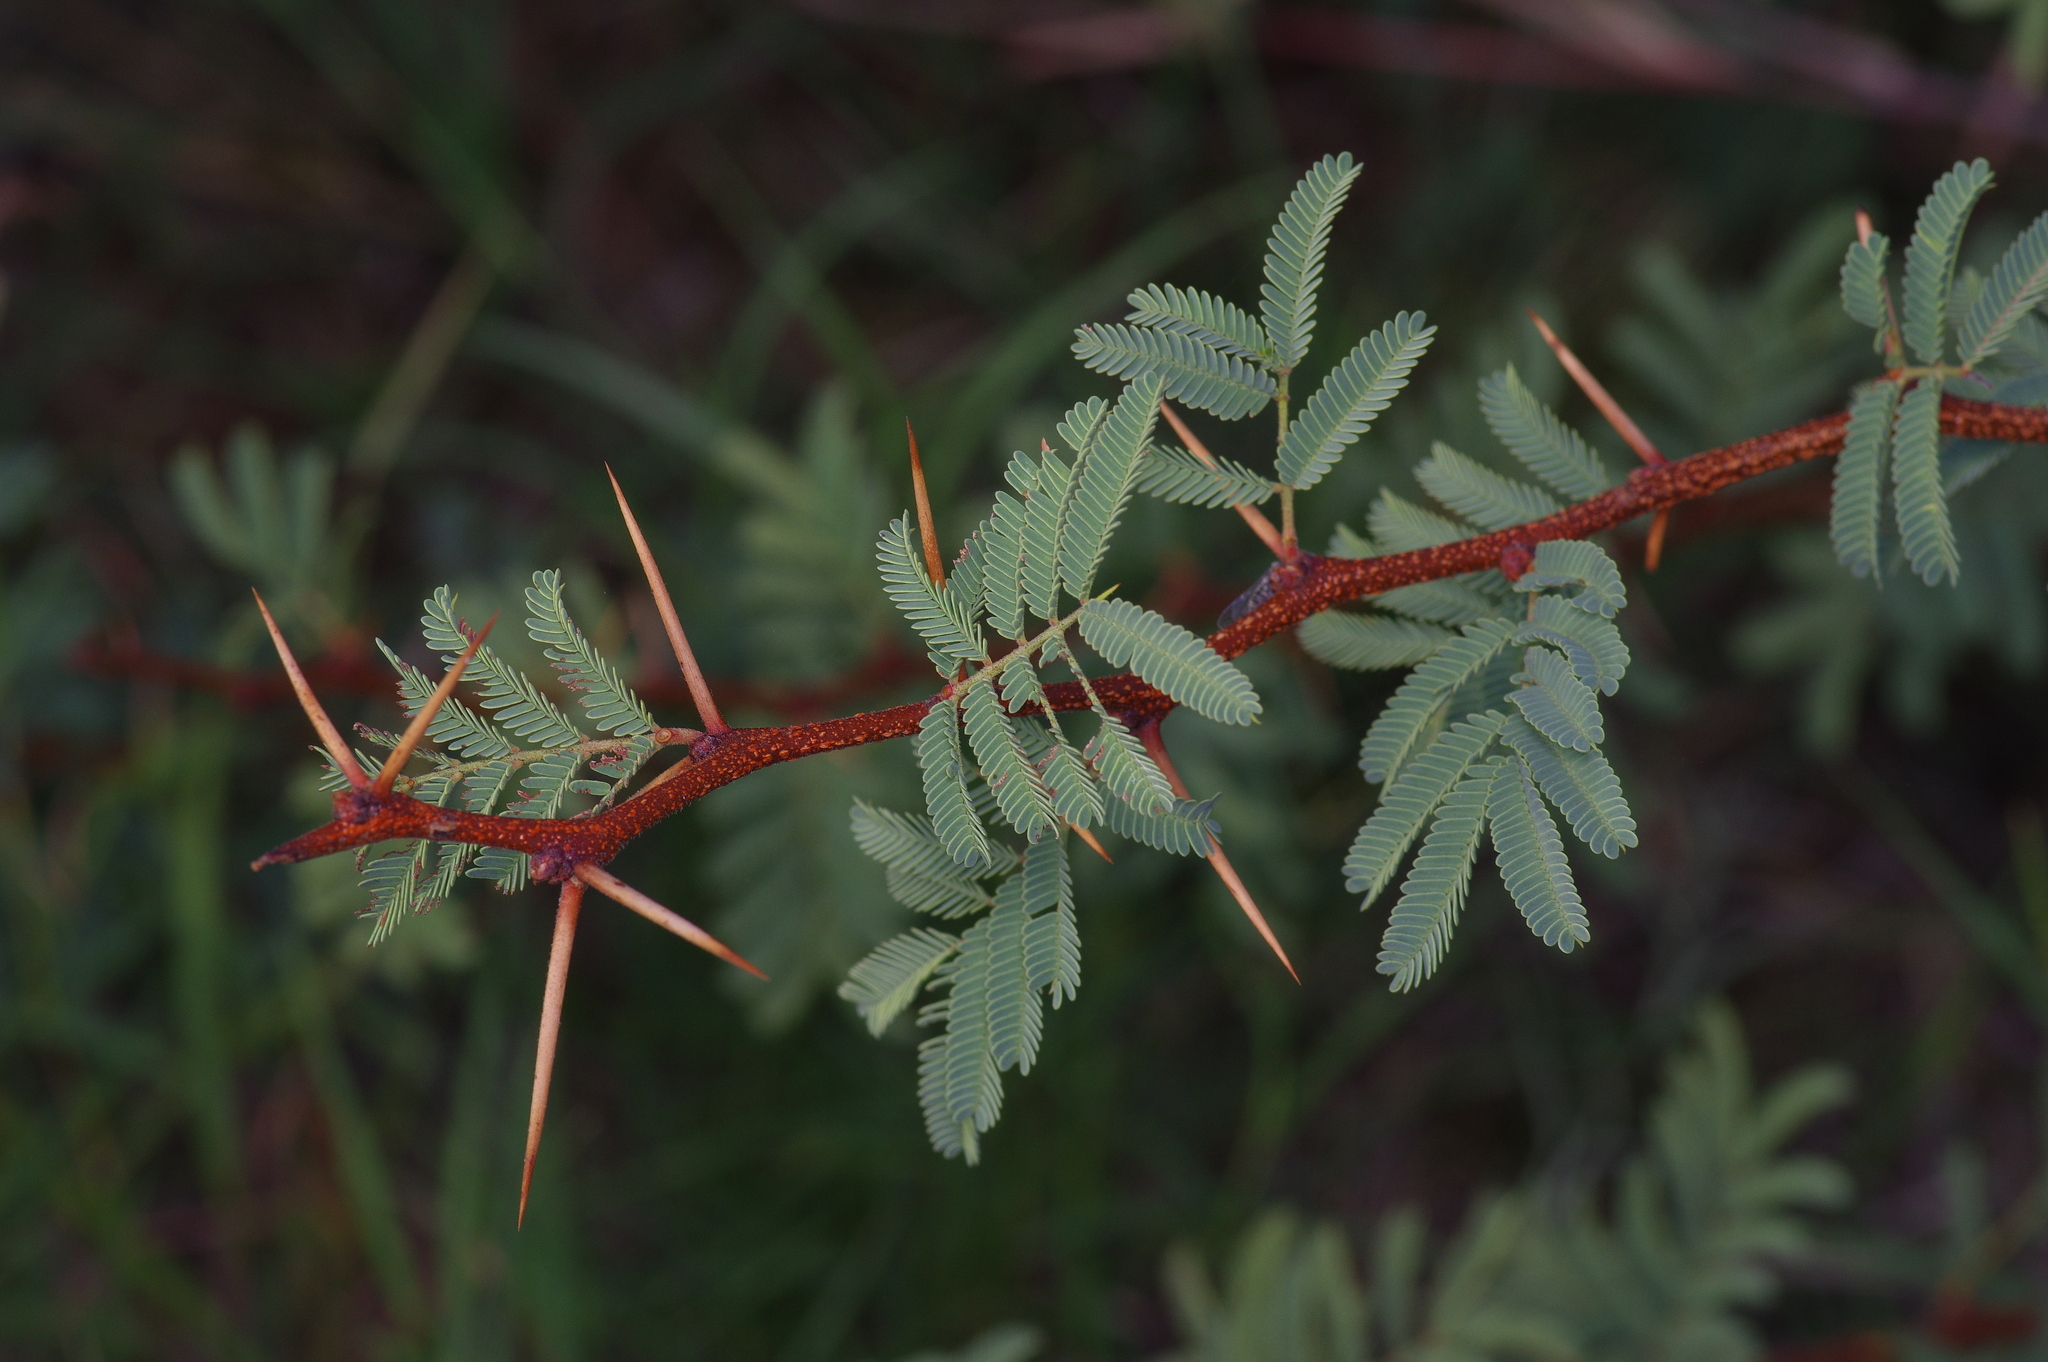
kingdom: Plantae
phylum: Tracheophyta
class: Magnoliopsida
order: Fabales
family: Fabaceae
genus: Vachellia
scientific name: Vachellia schaffneri
